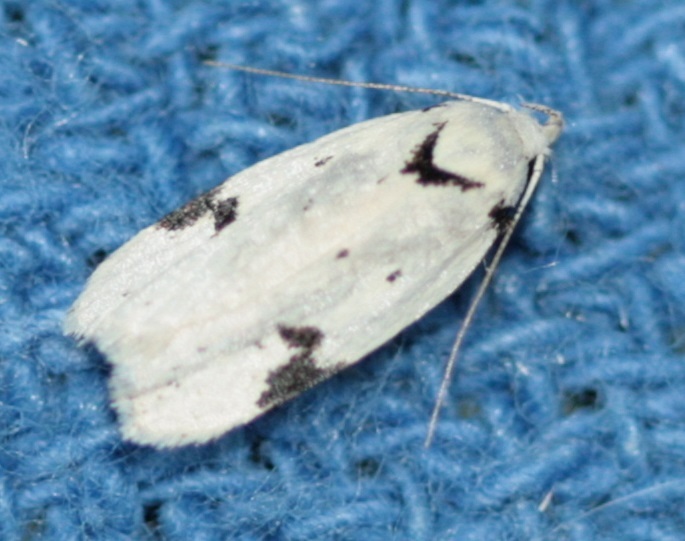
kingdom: Animalia
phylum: Arthropoda
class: Insecta
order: Lepidoptera
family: Oecophoridae
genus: Inga
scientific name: Inga sparsiciliella
